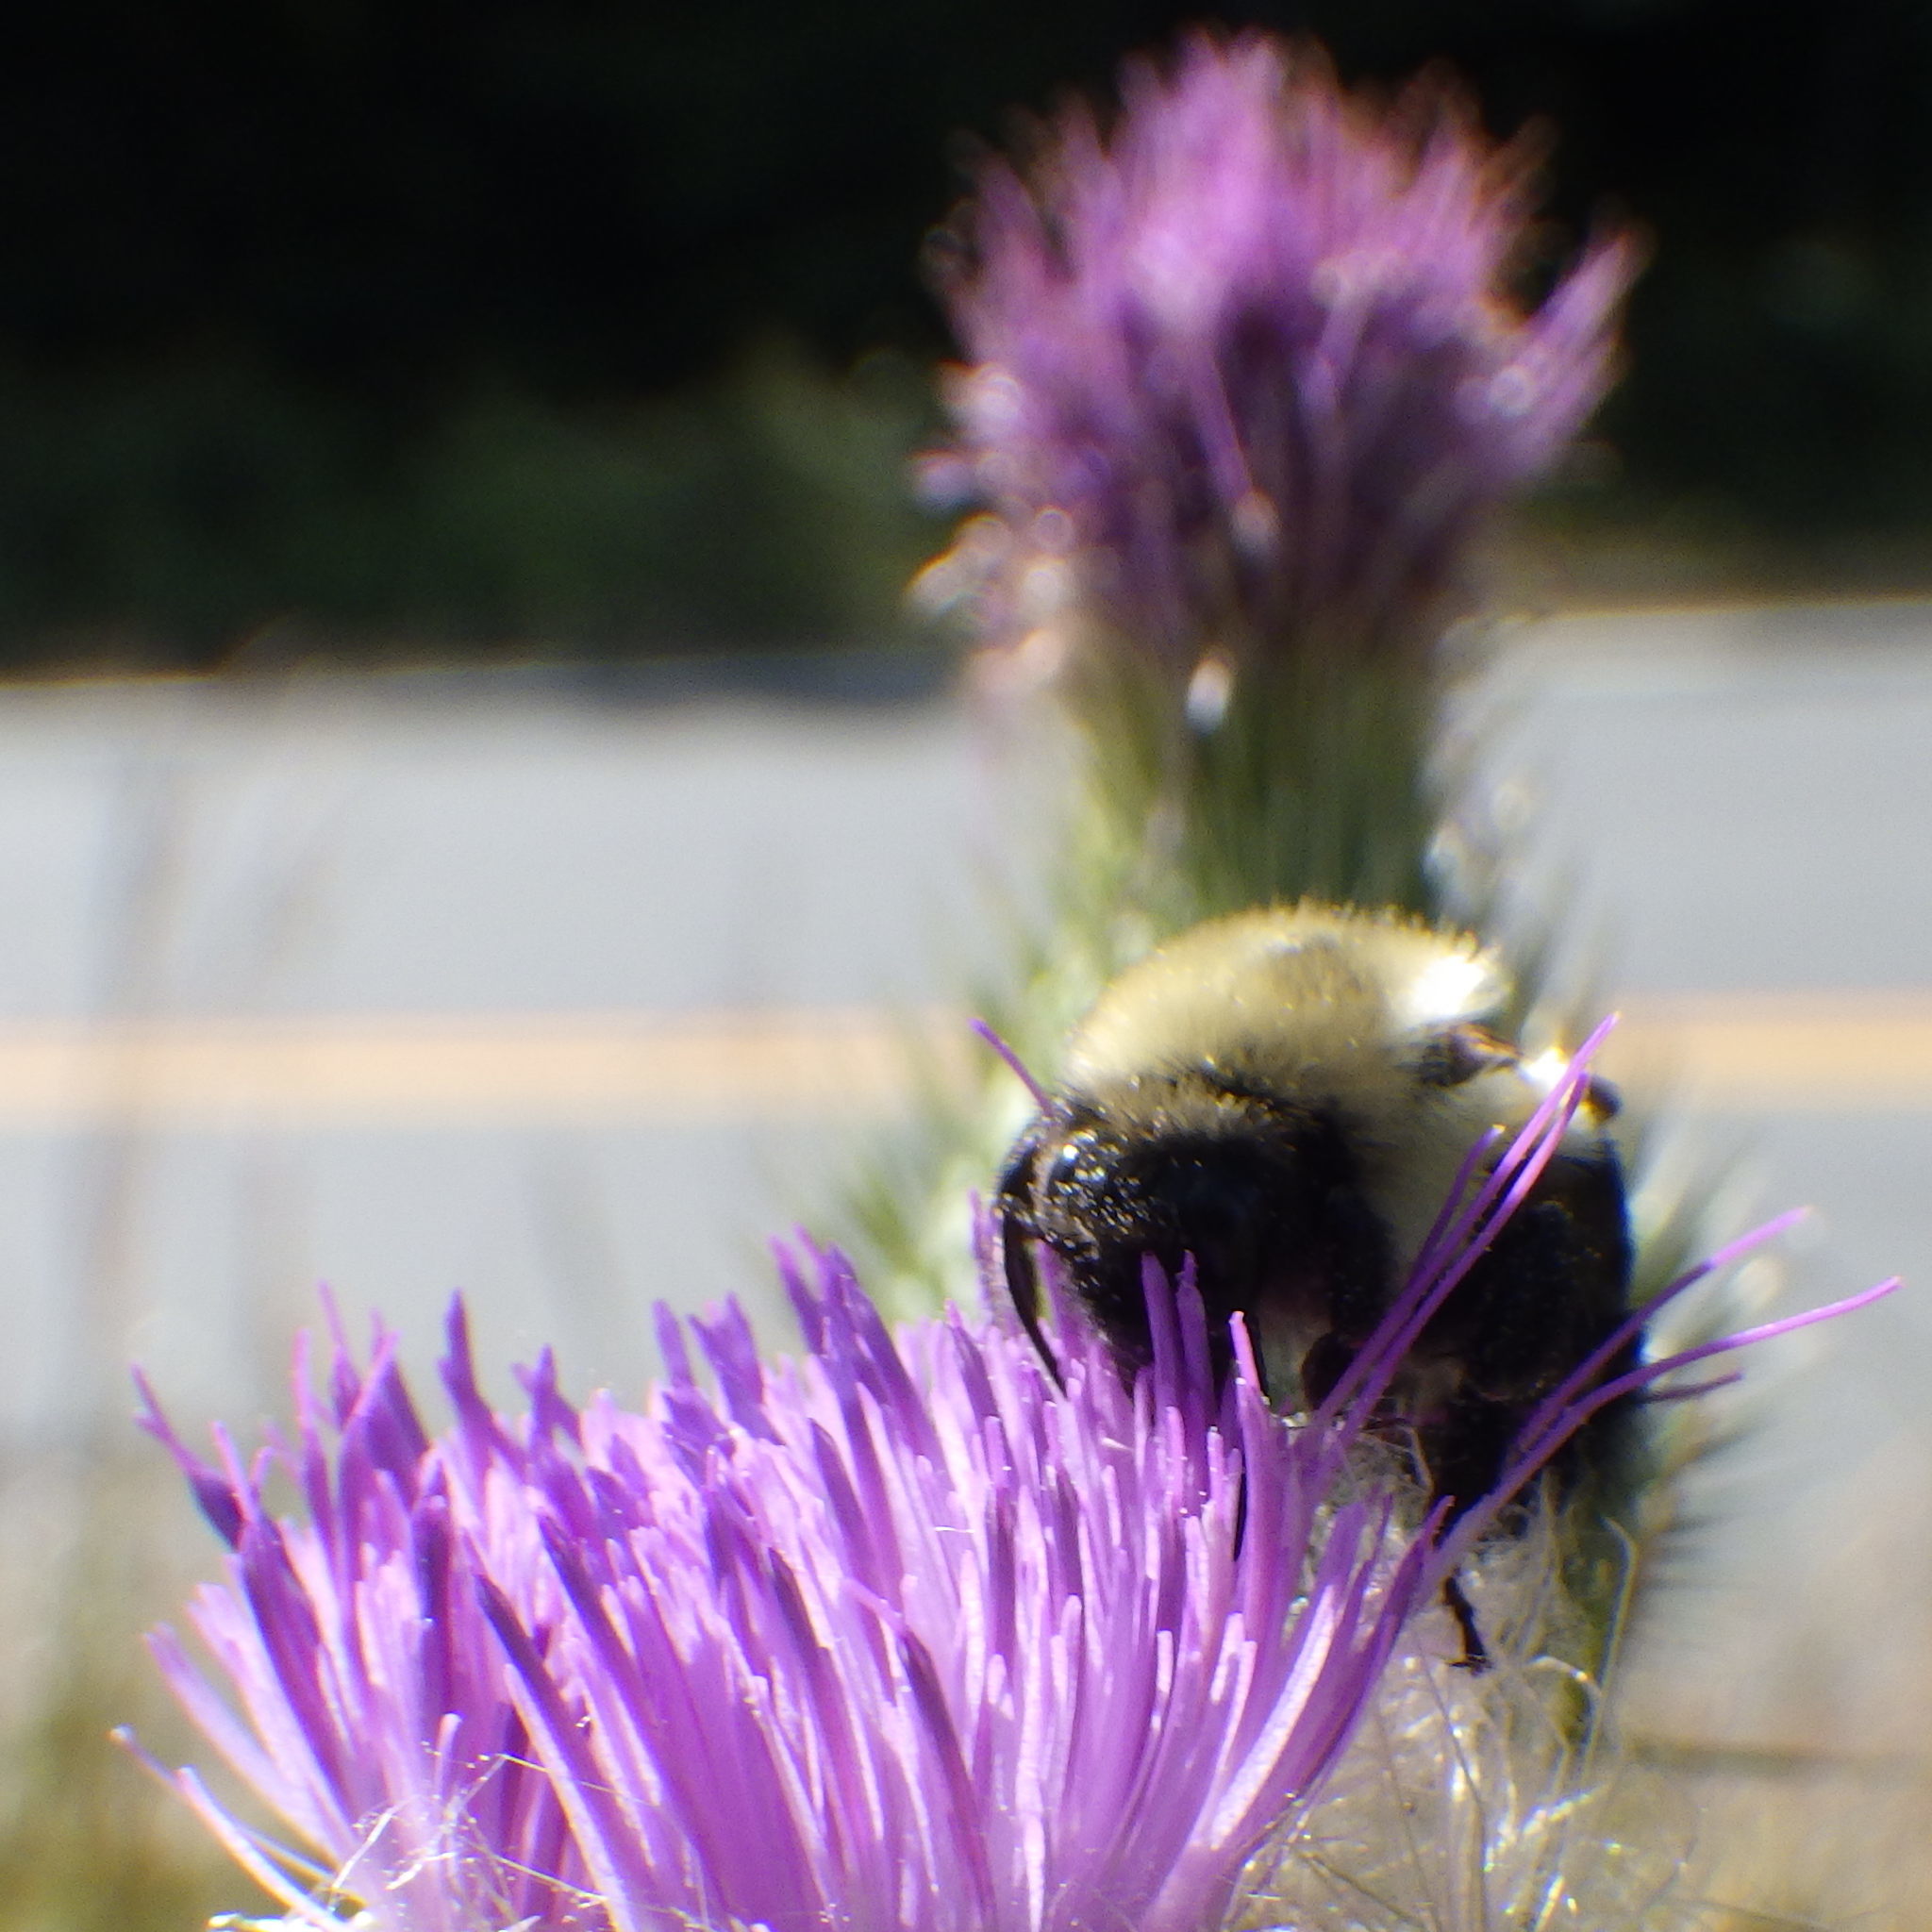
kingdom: Animalia
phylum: Arthropoda
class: Insecta
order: Hymenoptera
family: Apidae
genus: Bombus
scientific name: Bombus impatiens
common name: Common eastern bumble bee
